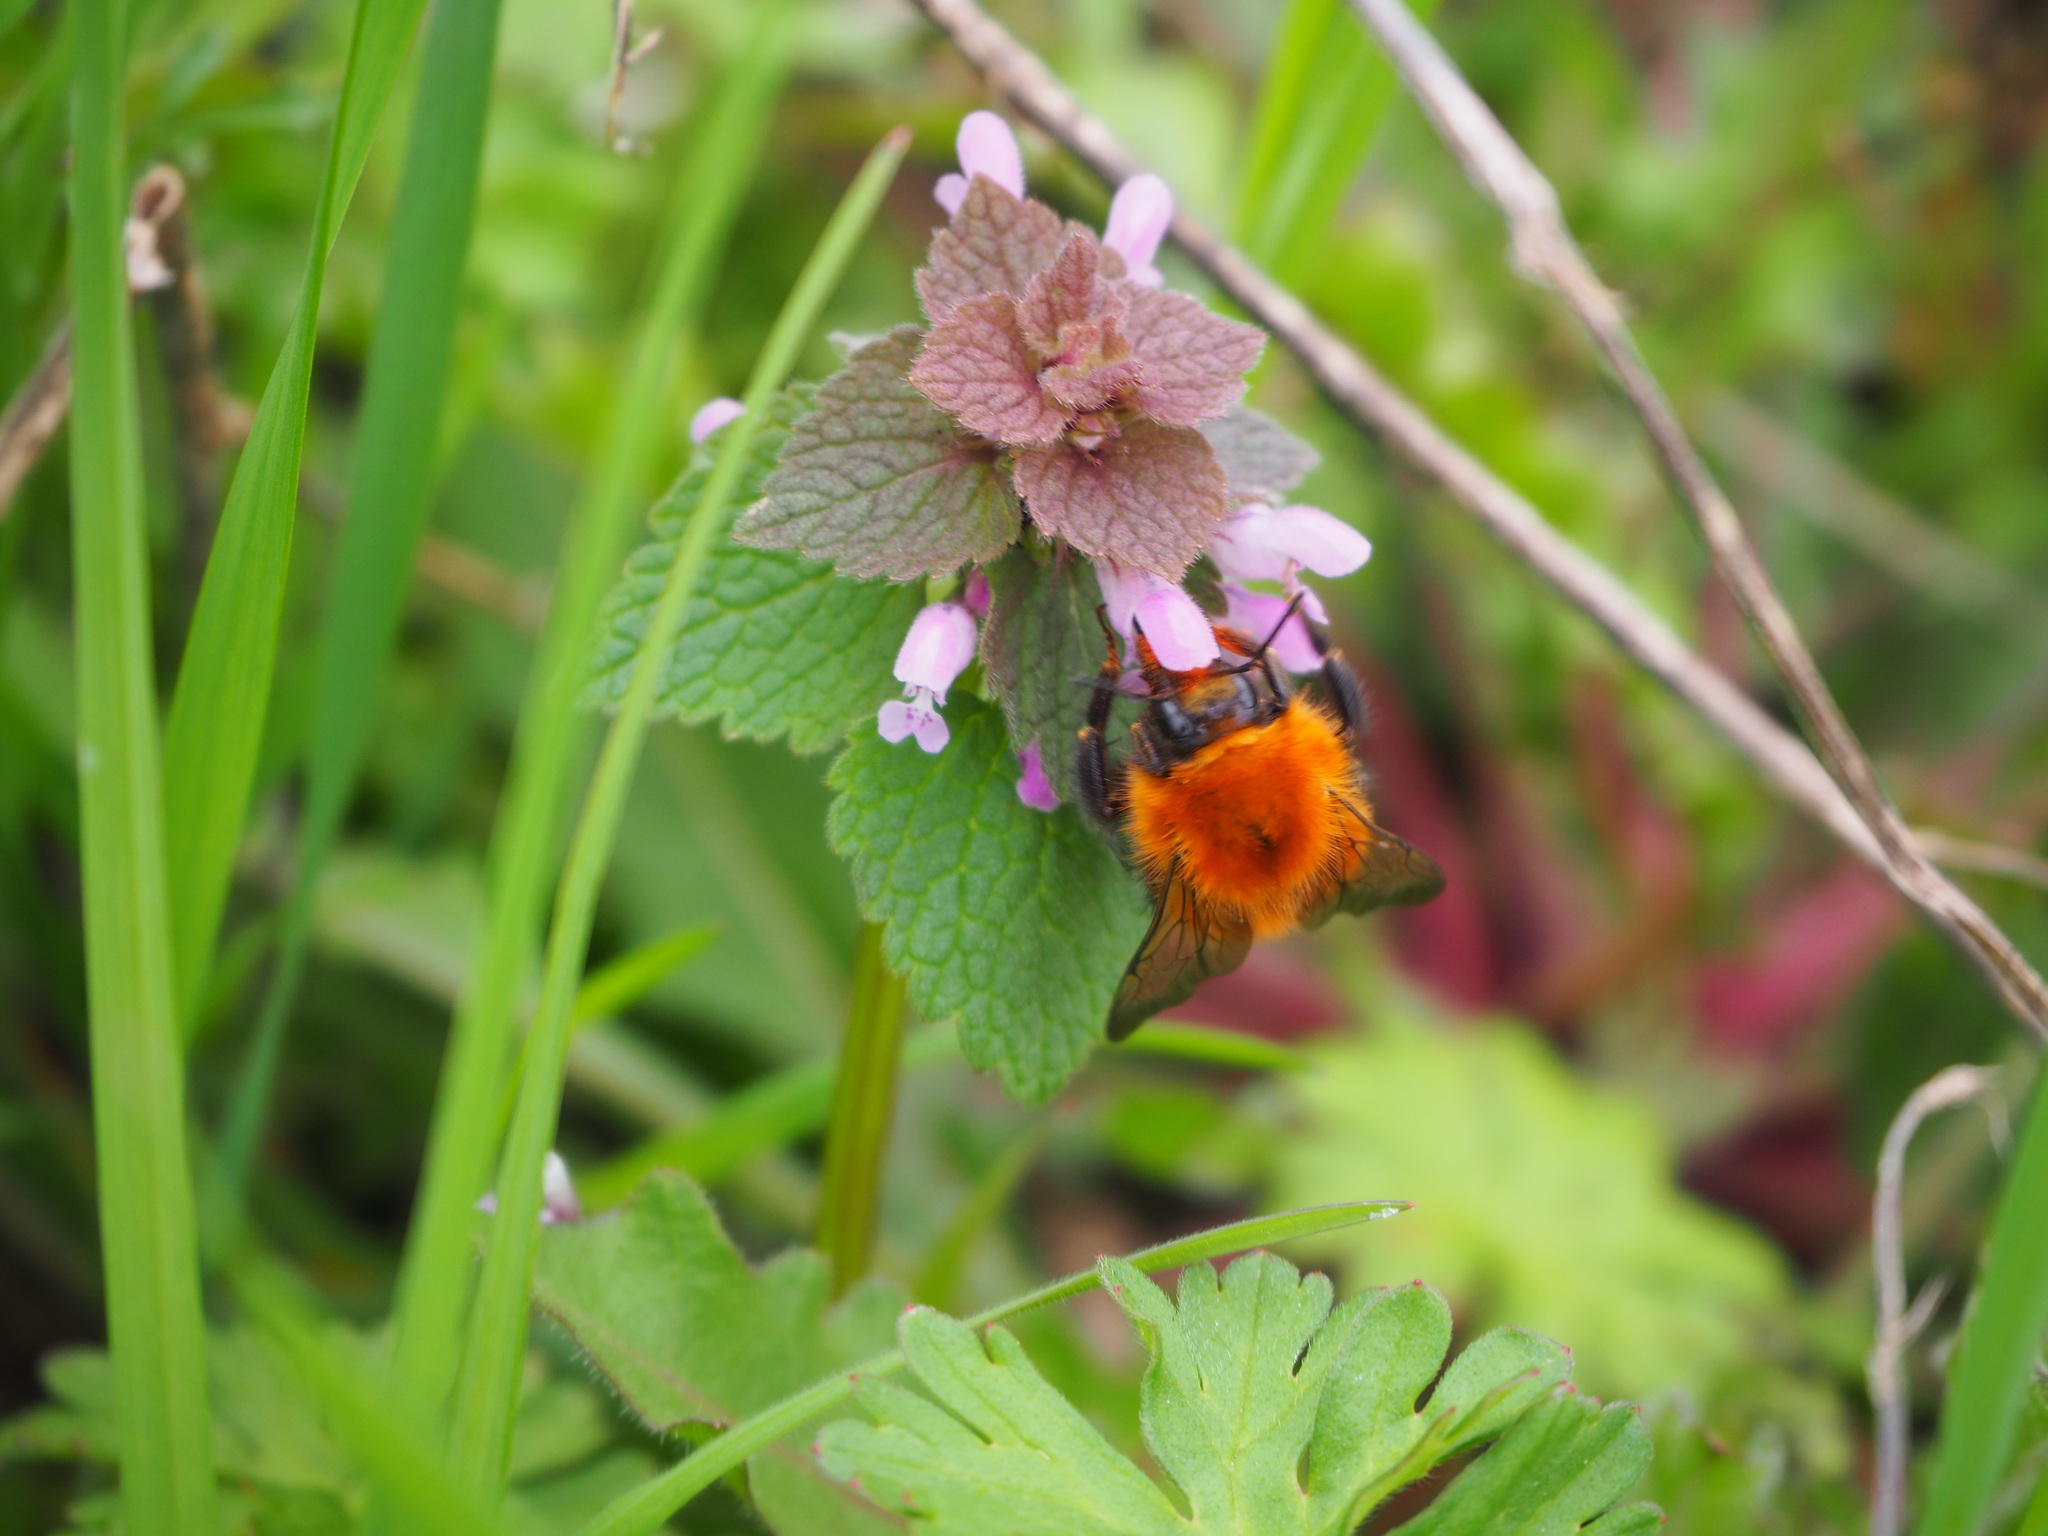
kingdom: Animalia
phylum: Arthropoda
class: Insecta
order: Hymenoptera
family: Apidae
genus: Bombus
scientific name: Bombus pascuorum
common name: Common carder bee
